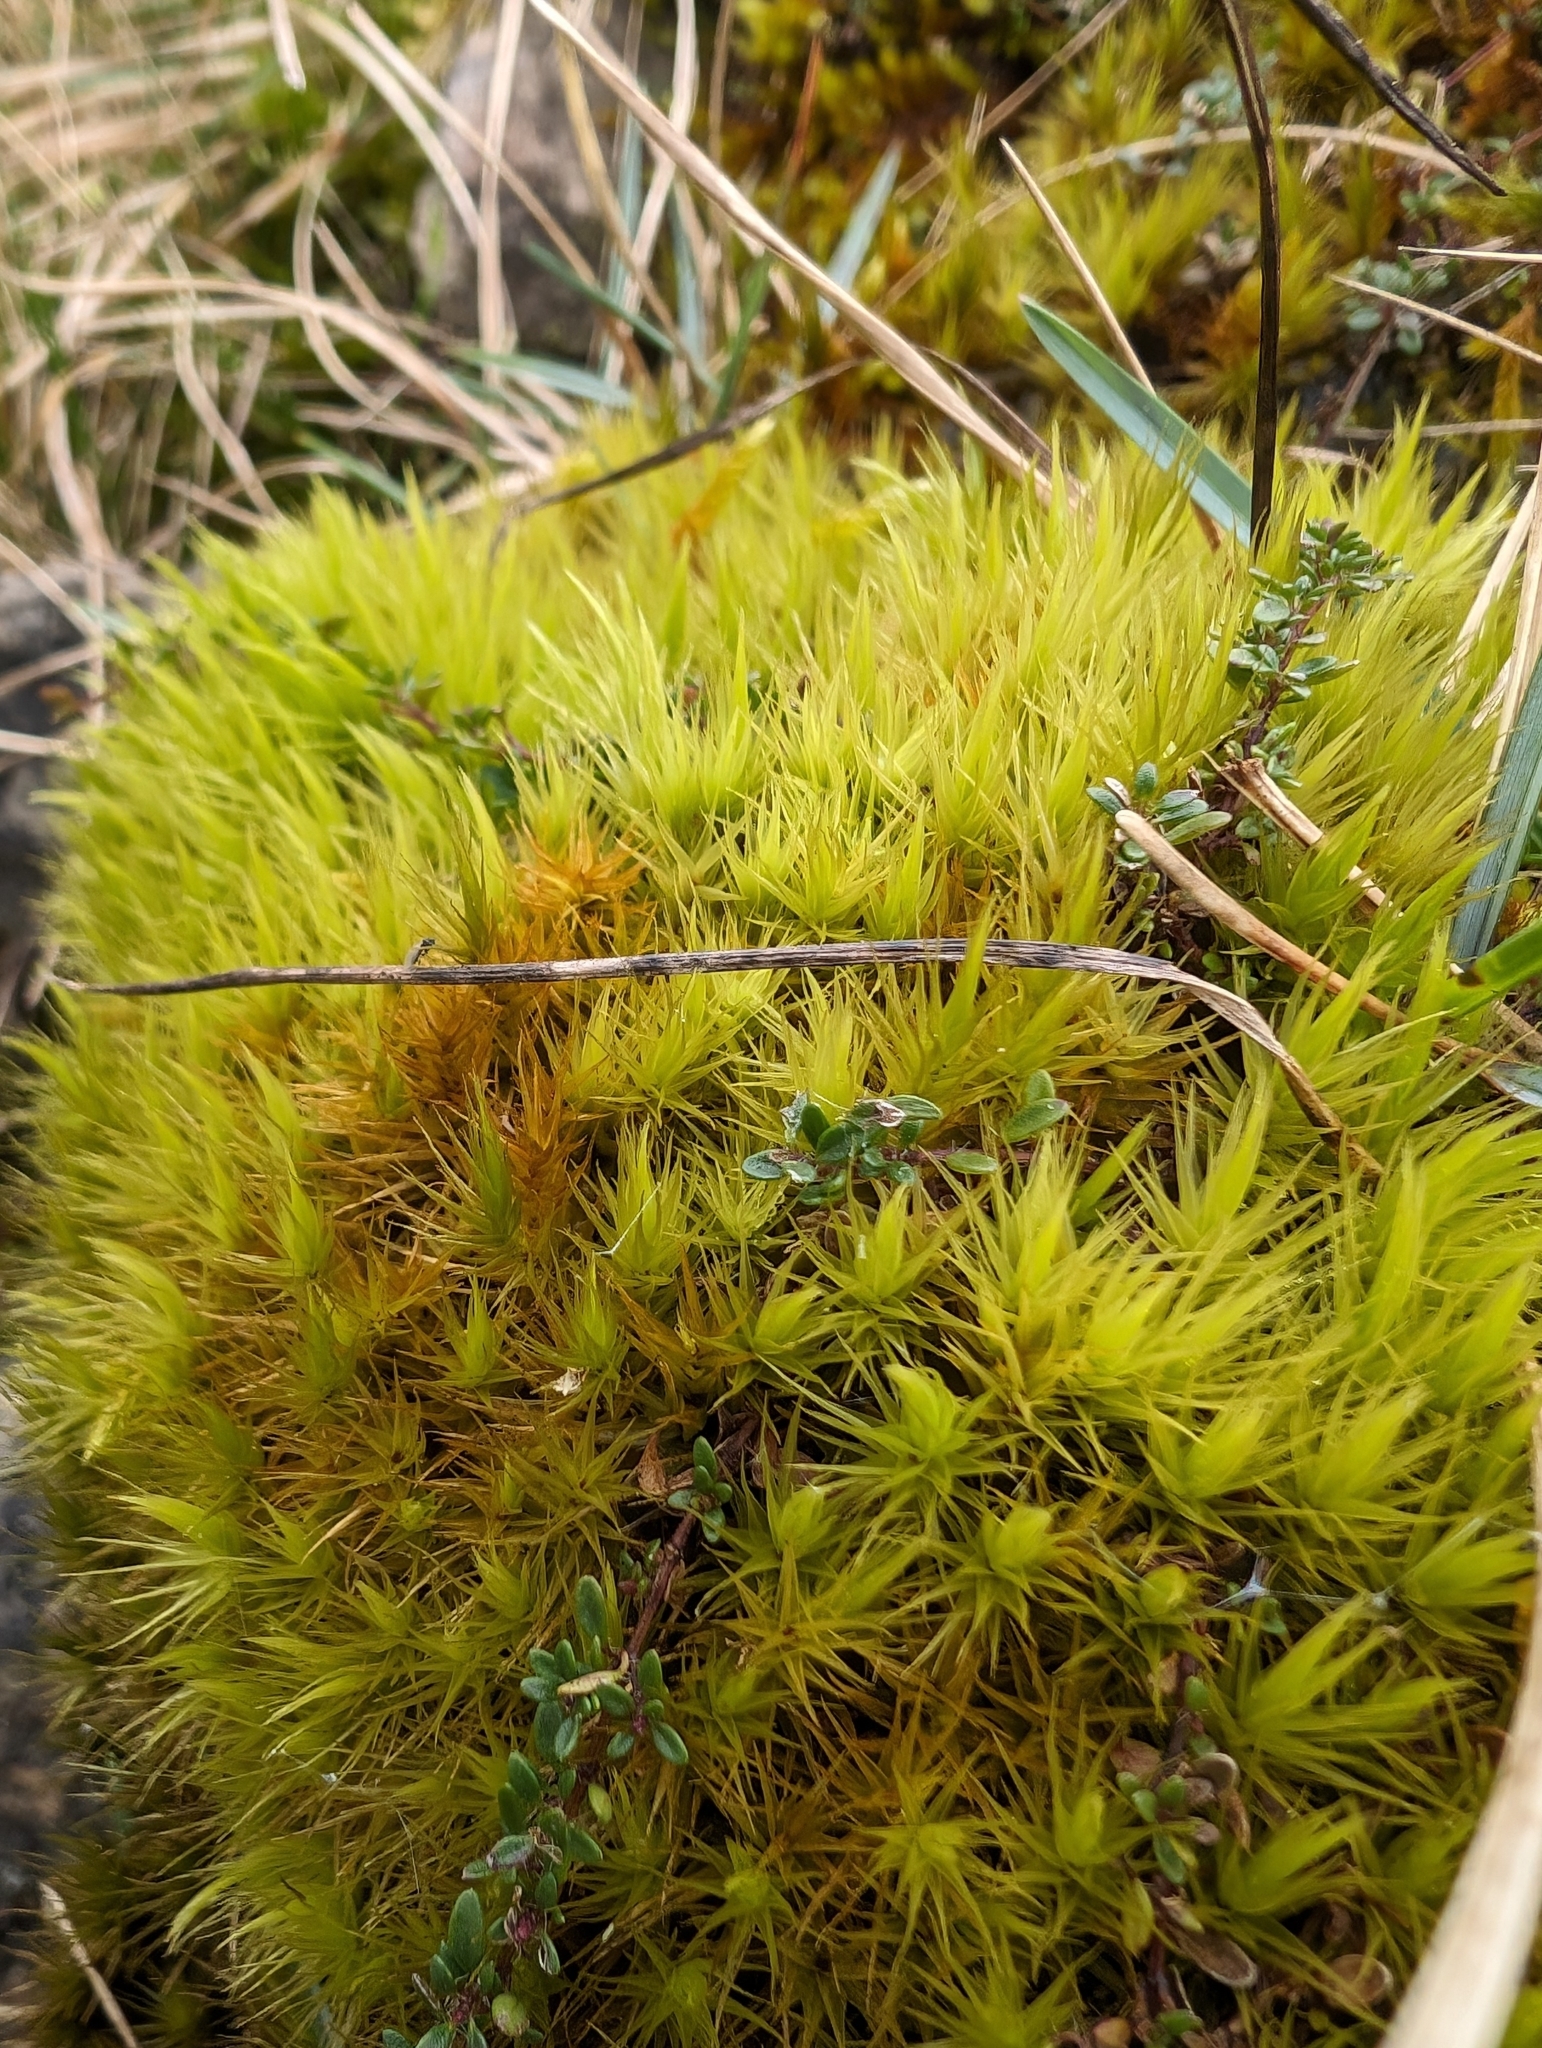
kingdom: Plantae
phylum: Bryophyta
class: Bryopsida
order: Dicranales
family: Dicranaceae
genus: Dicranum
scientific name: Dicranum scoparium
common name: Broom fork-moss
